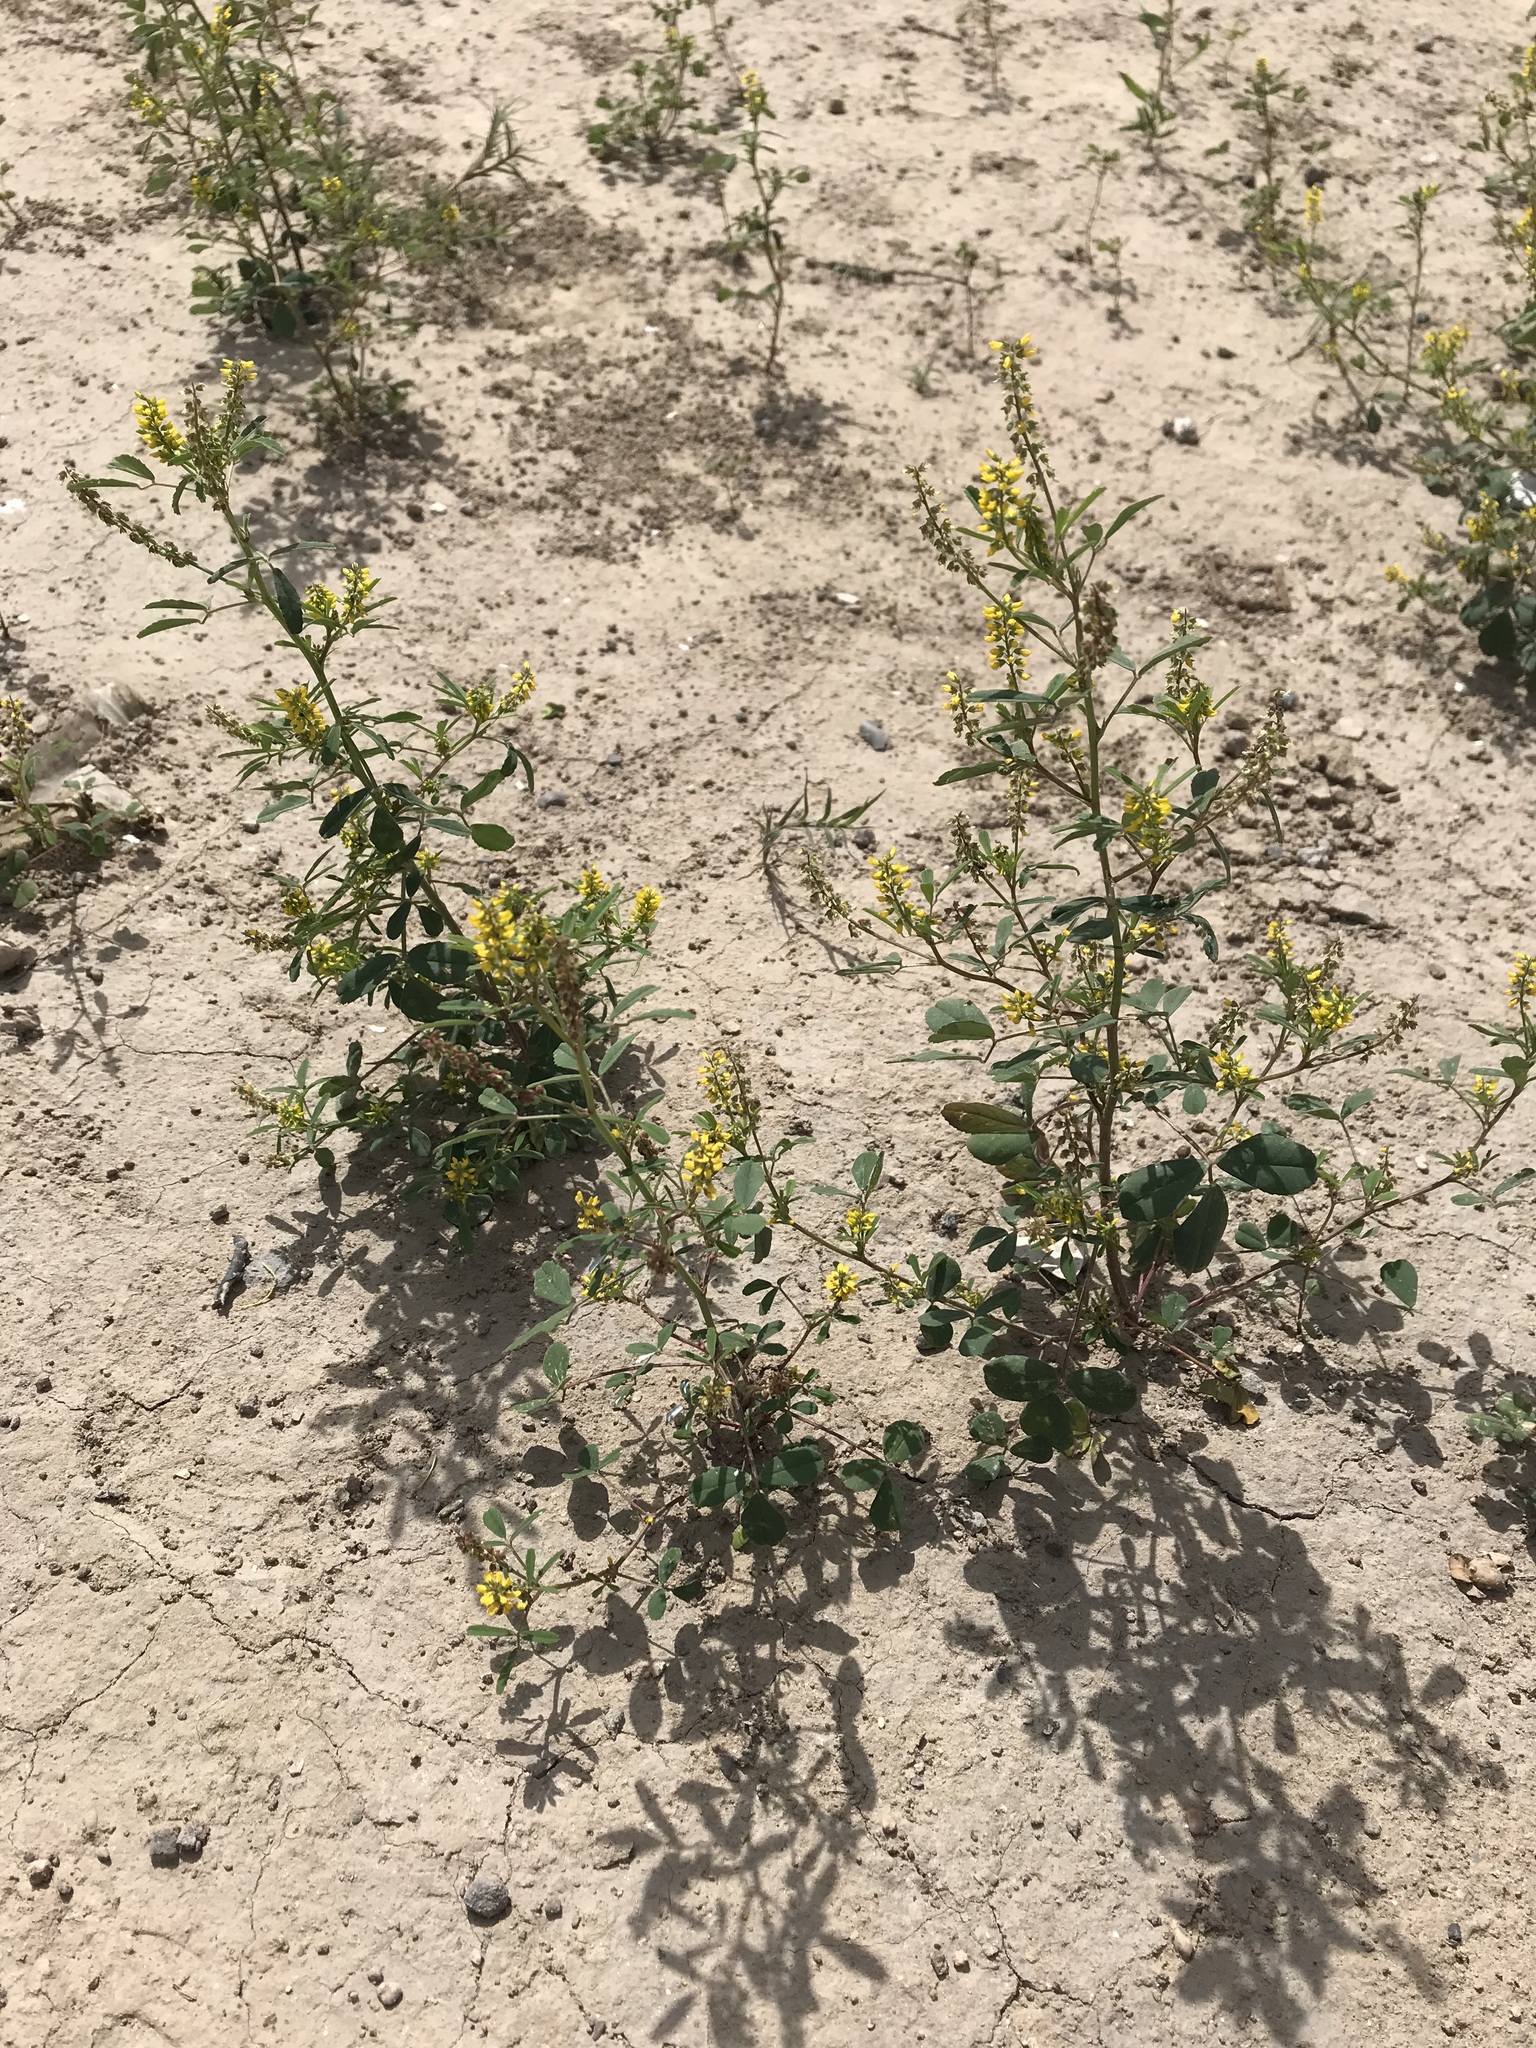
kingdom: Plantae
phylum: Tracheophyta
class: Magnoliopsida
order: Fabales
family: Fabaceae
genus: Melilotus
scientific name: Melilotus indicus
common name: Small melilot
